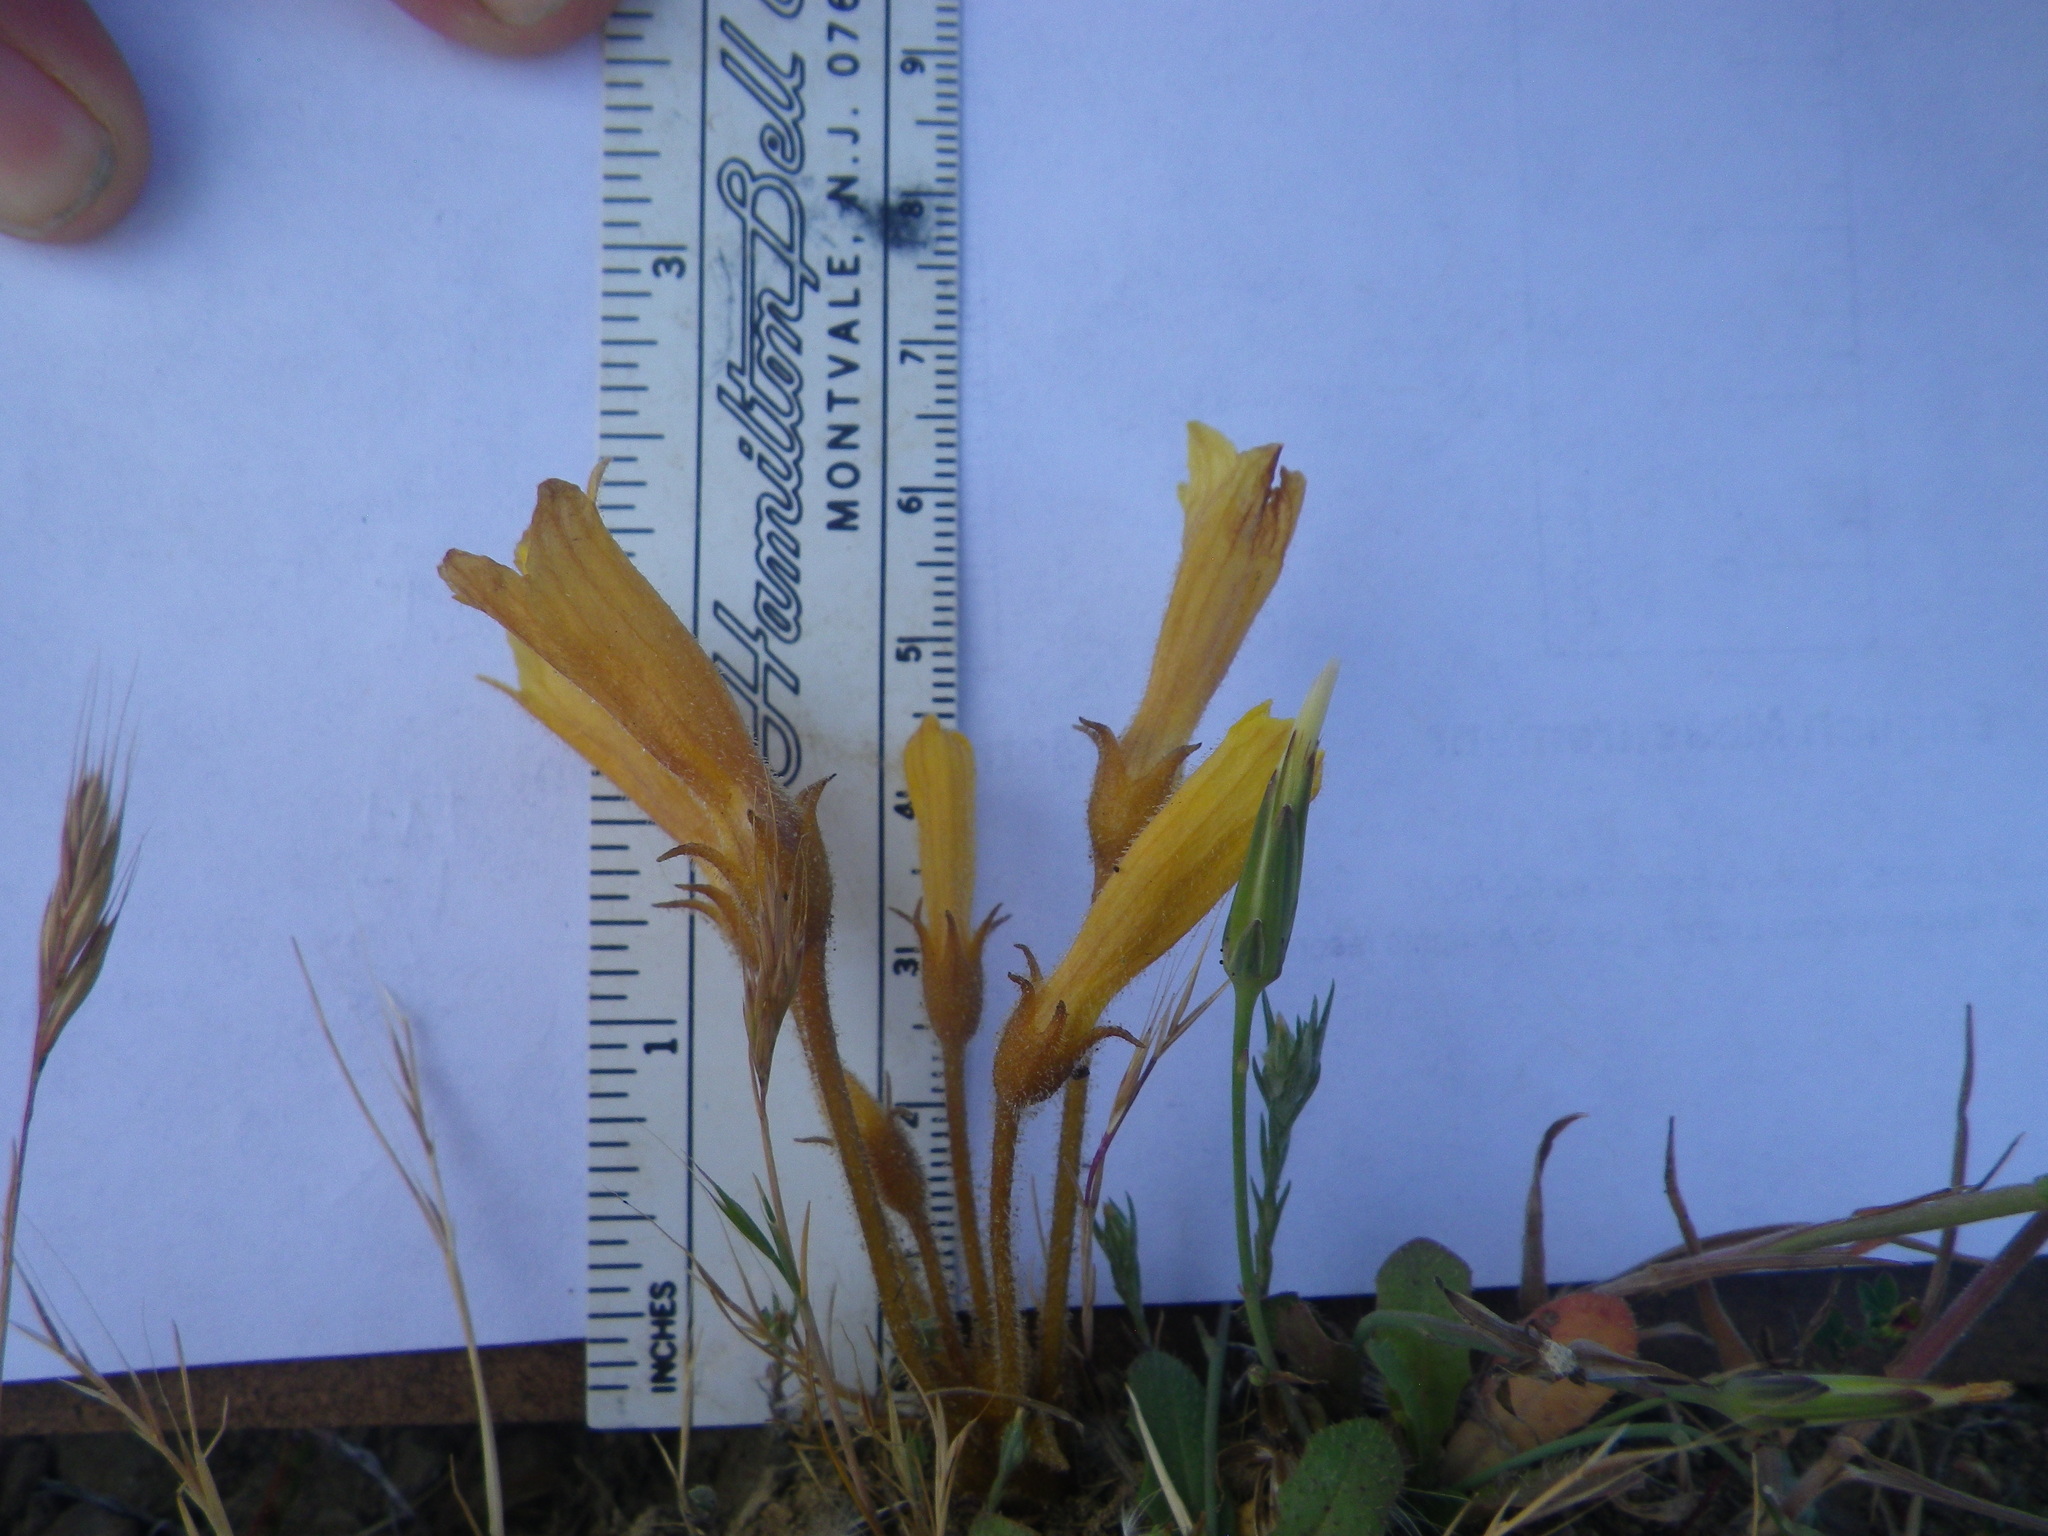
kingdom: Plantae
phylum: Tracheophyta
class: Magnoliopsida
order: Lamiales
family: Orobanchaceae
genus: Aphyllon
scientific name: Aphyllon franciscanum
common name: San francisco broomrape
